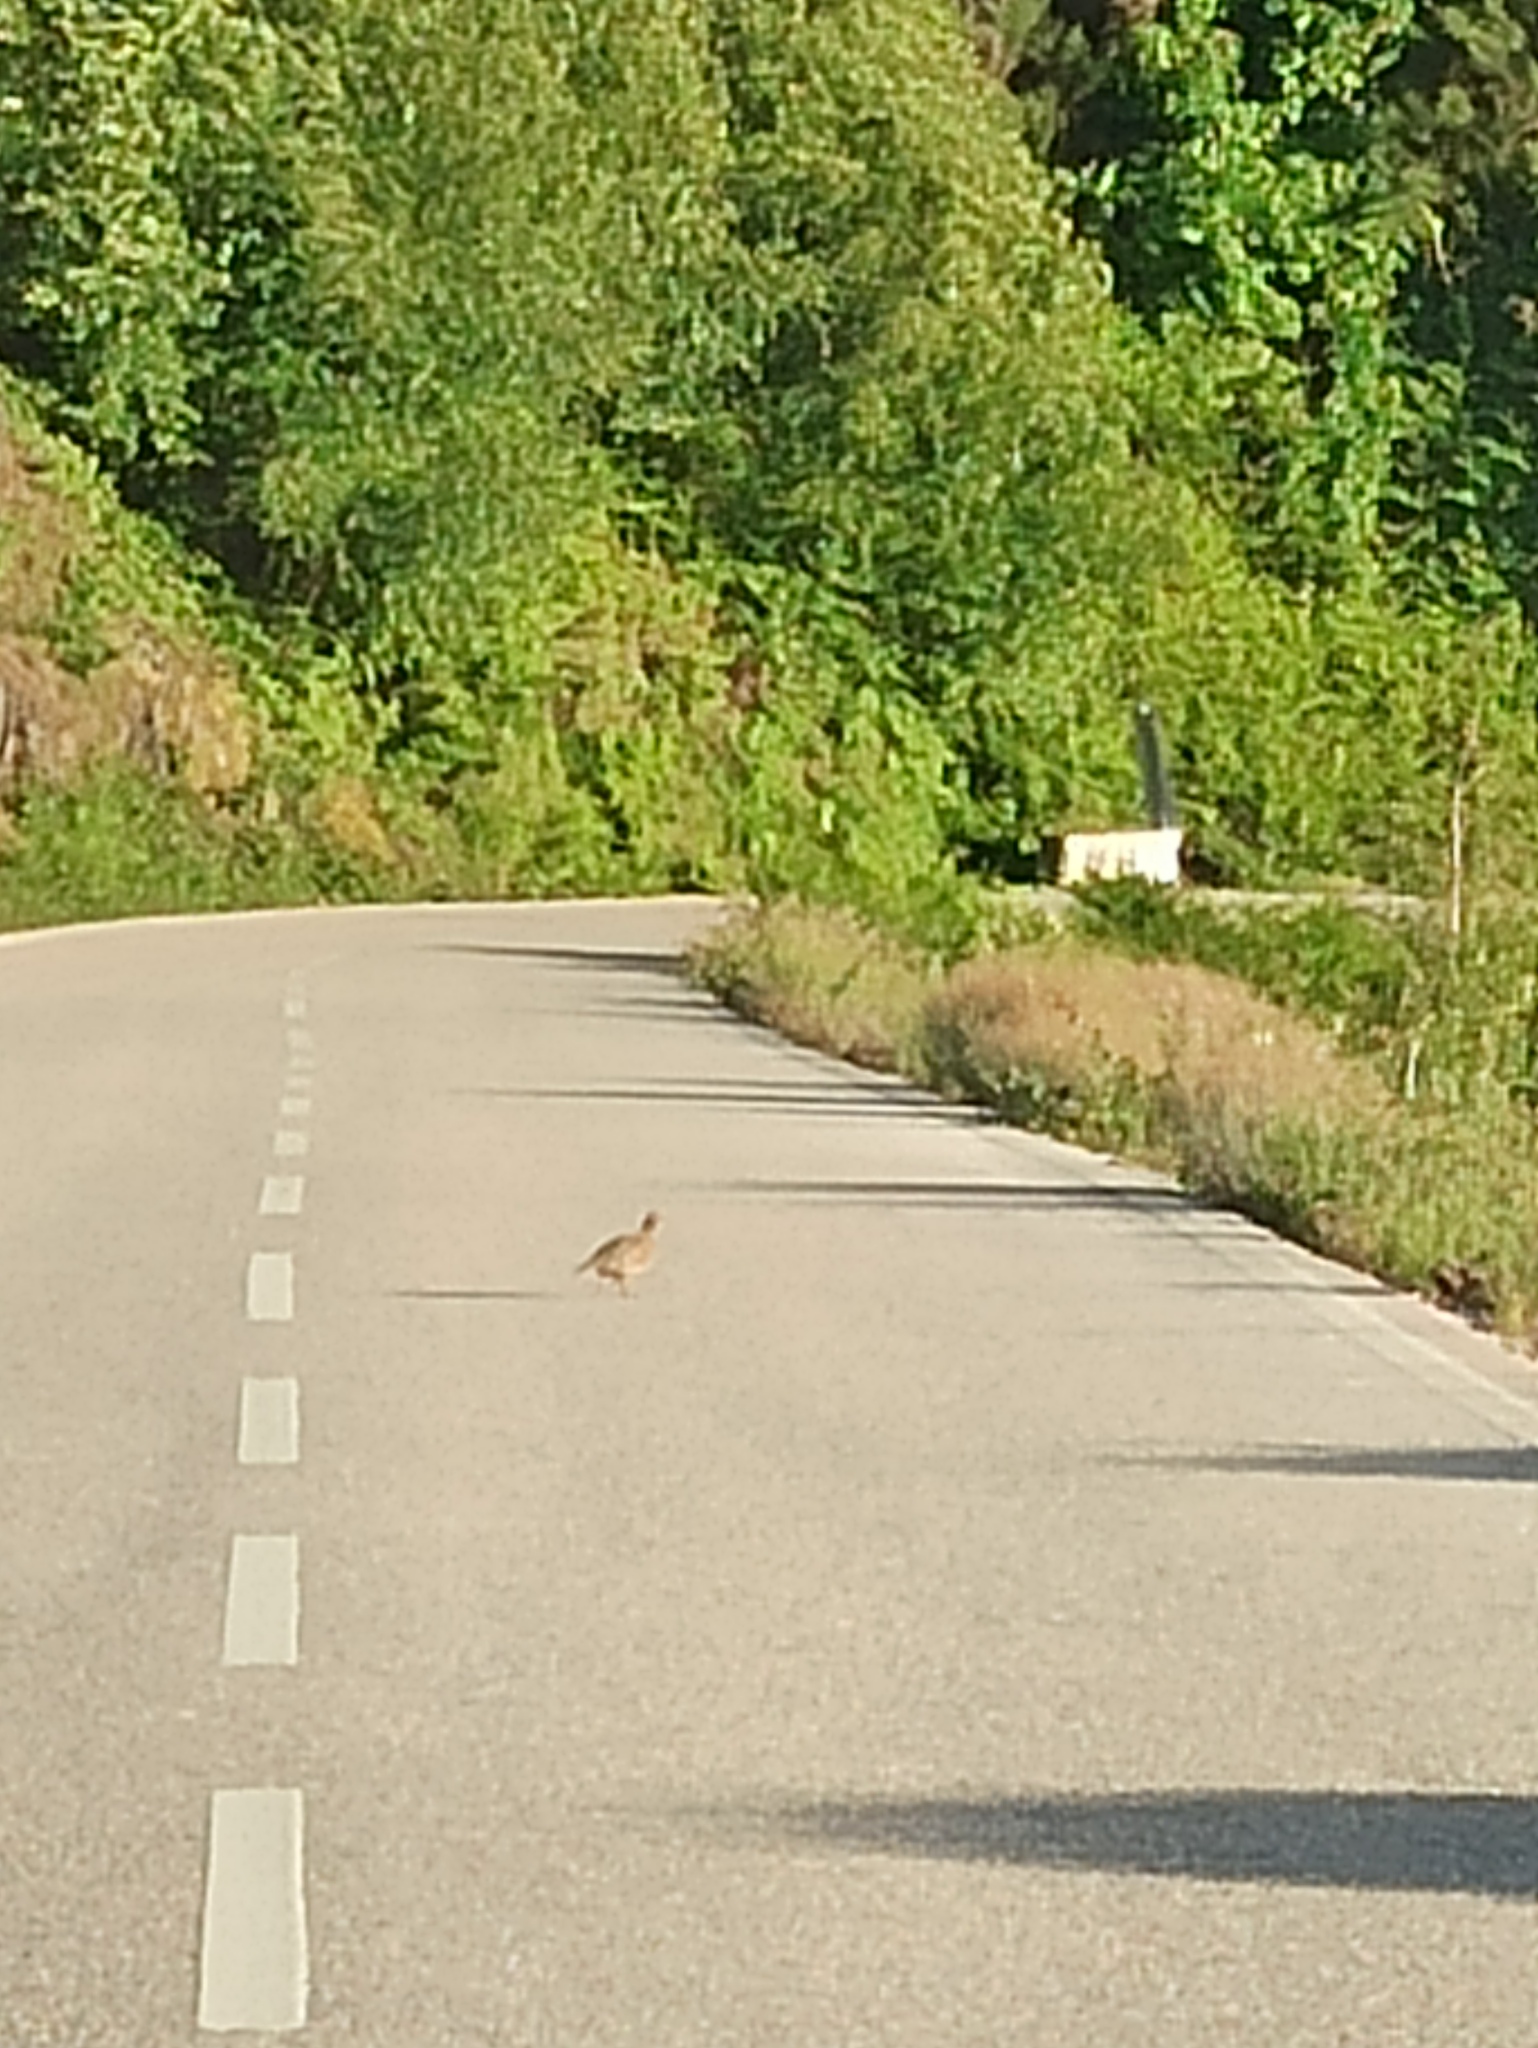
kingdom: Animalia
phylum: Chordata
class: Aves
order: Galliformes
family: Phasianidae
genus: Alectoris
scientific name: Alectoris rufa
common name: Red-legged partridge
